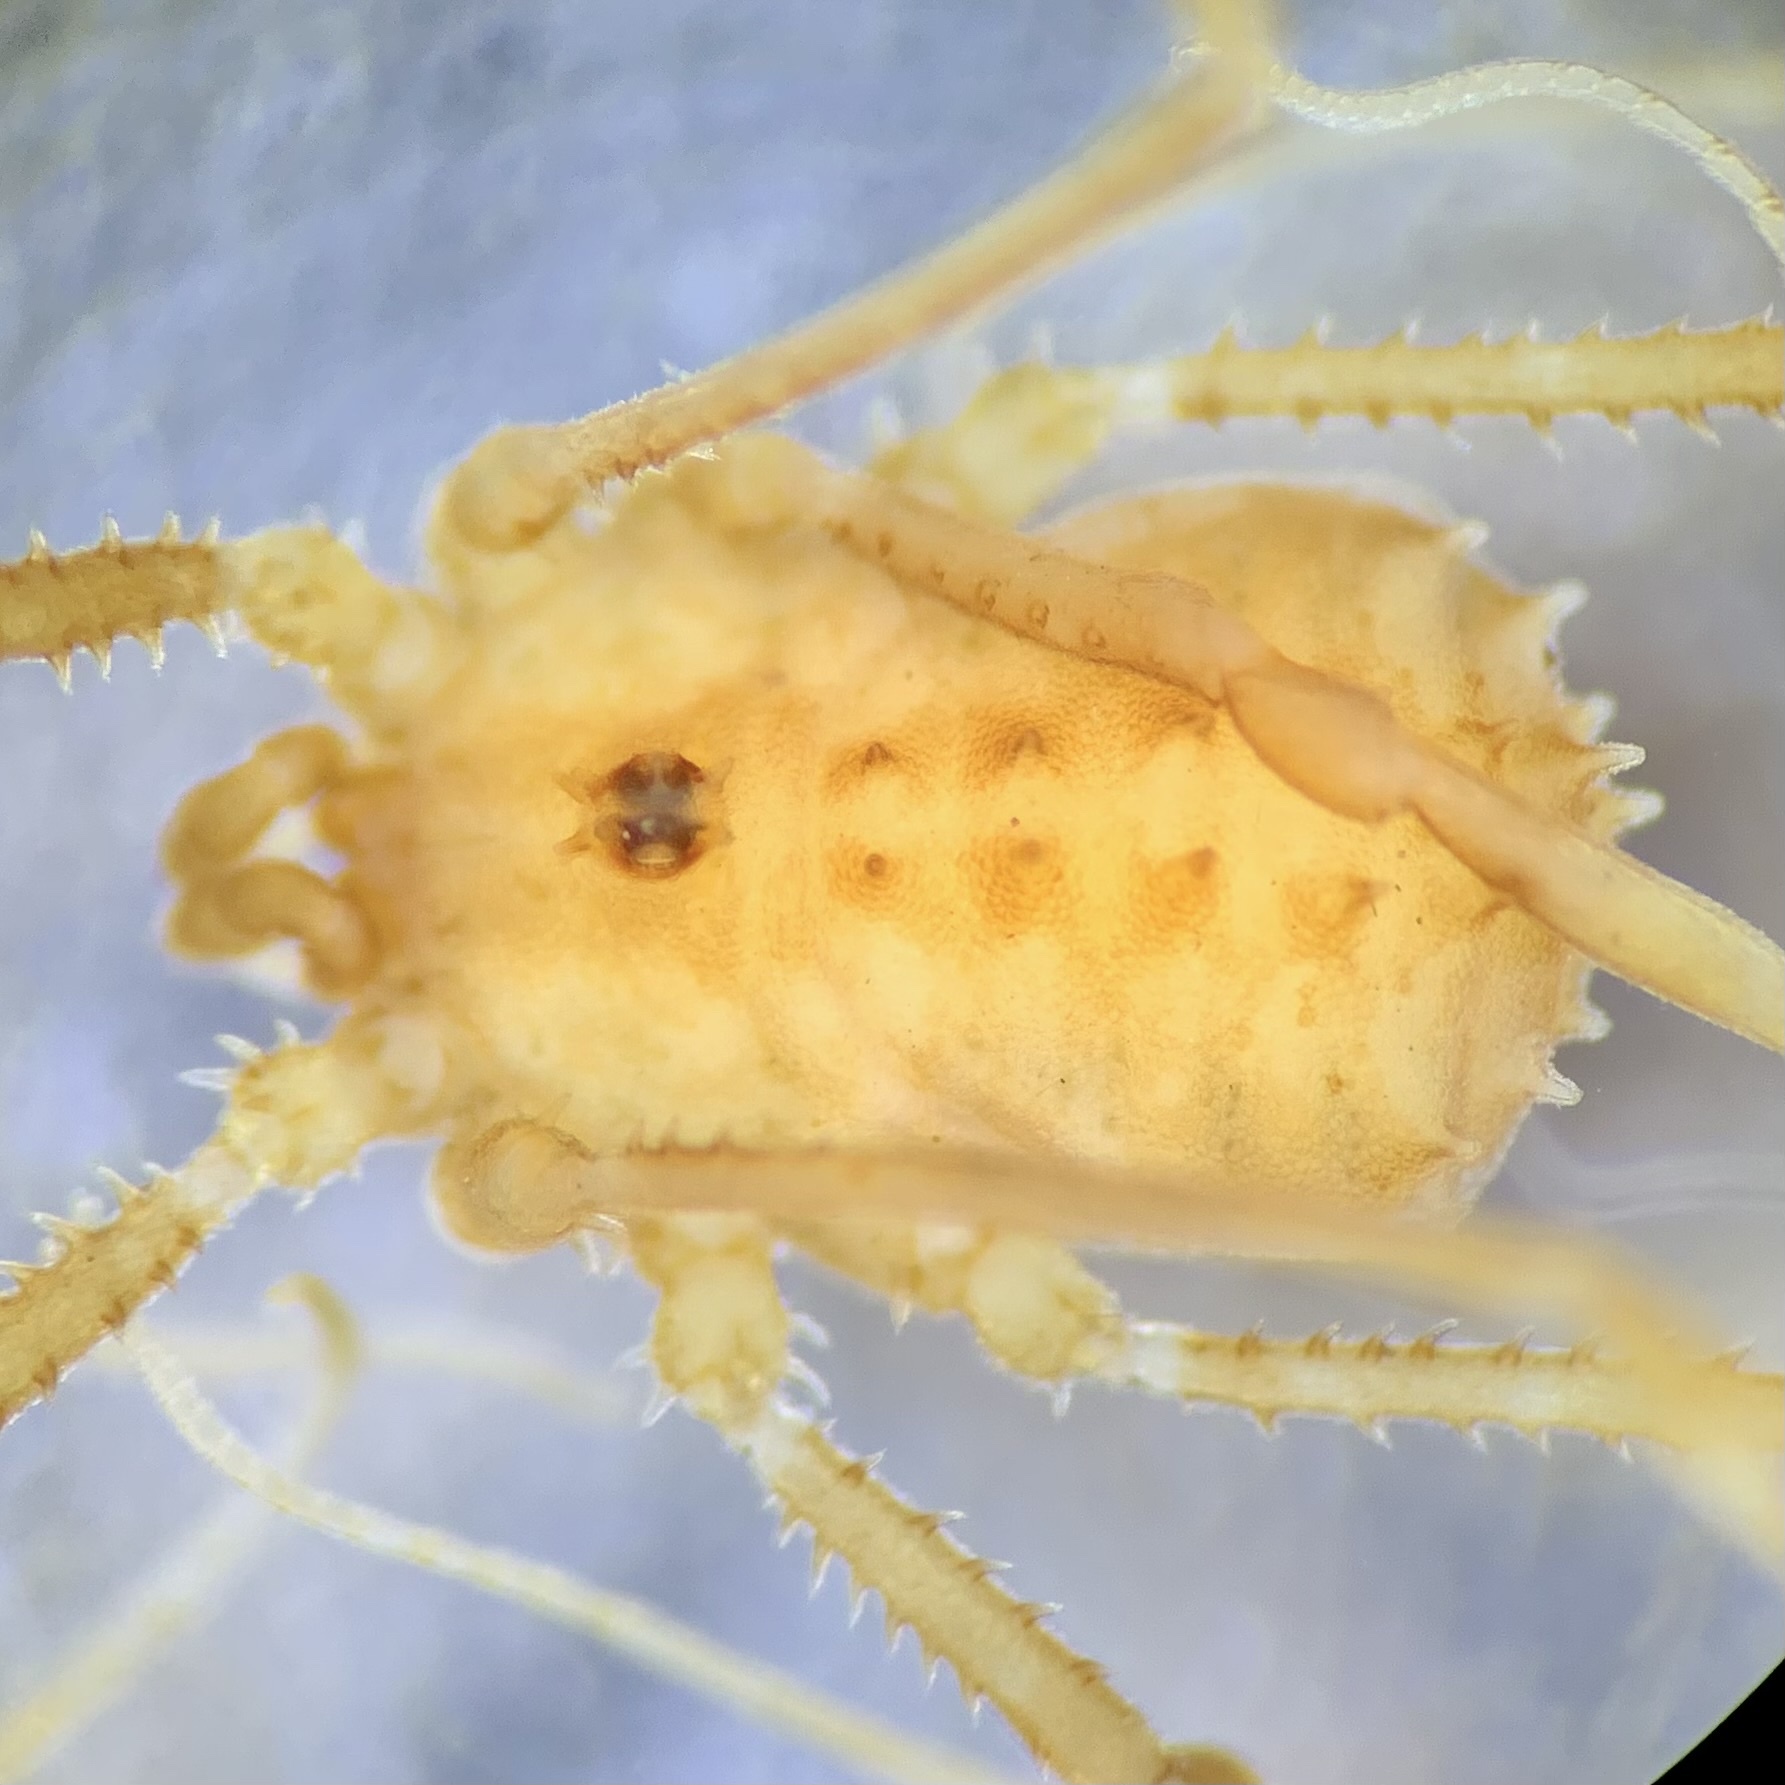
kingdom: Animalia
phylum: Arthropoda
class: Arachnida
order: Opiliones
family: Sclerosomatidae
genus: Astrobunus
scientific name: Astrobunus helleri
